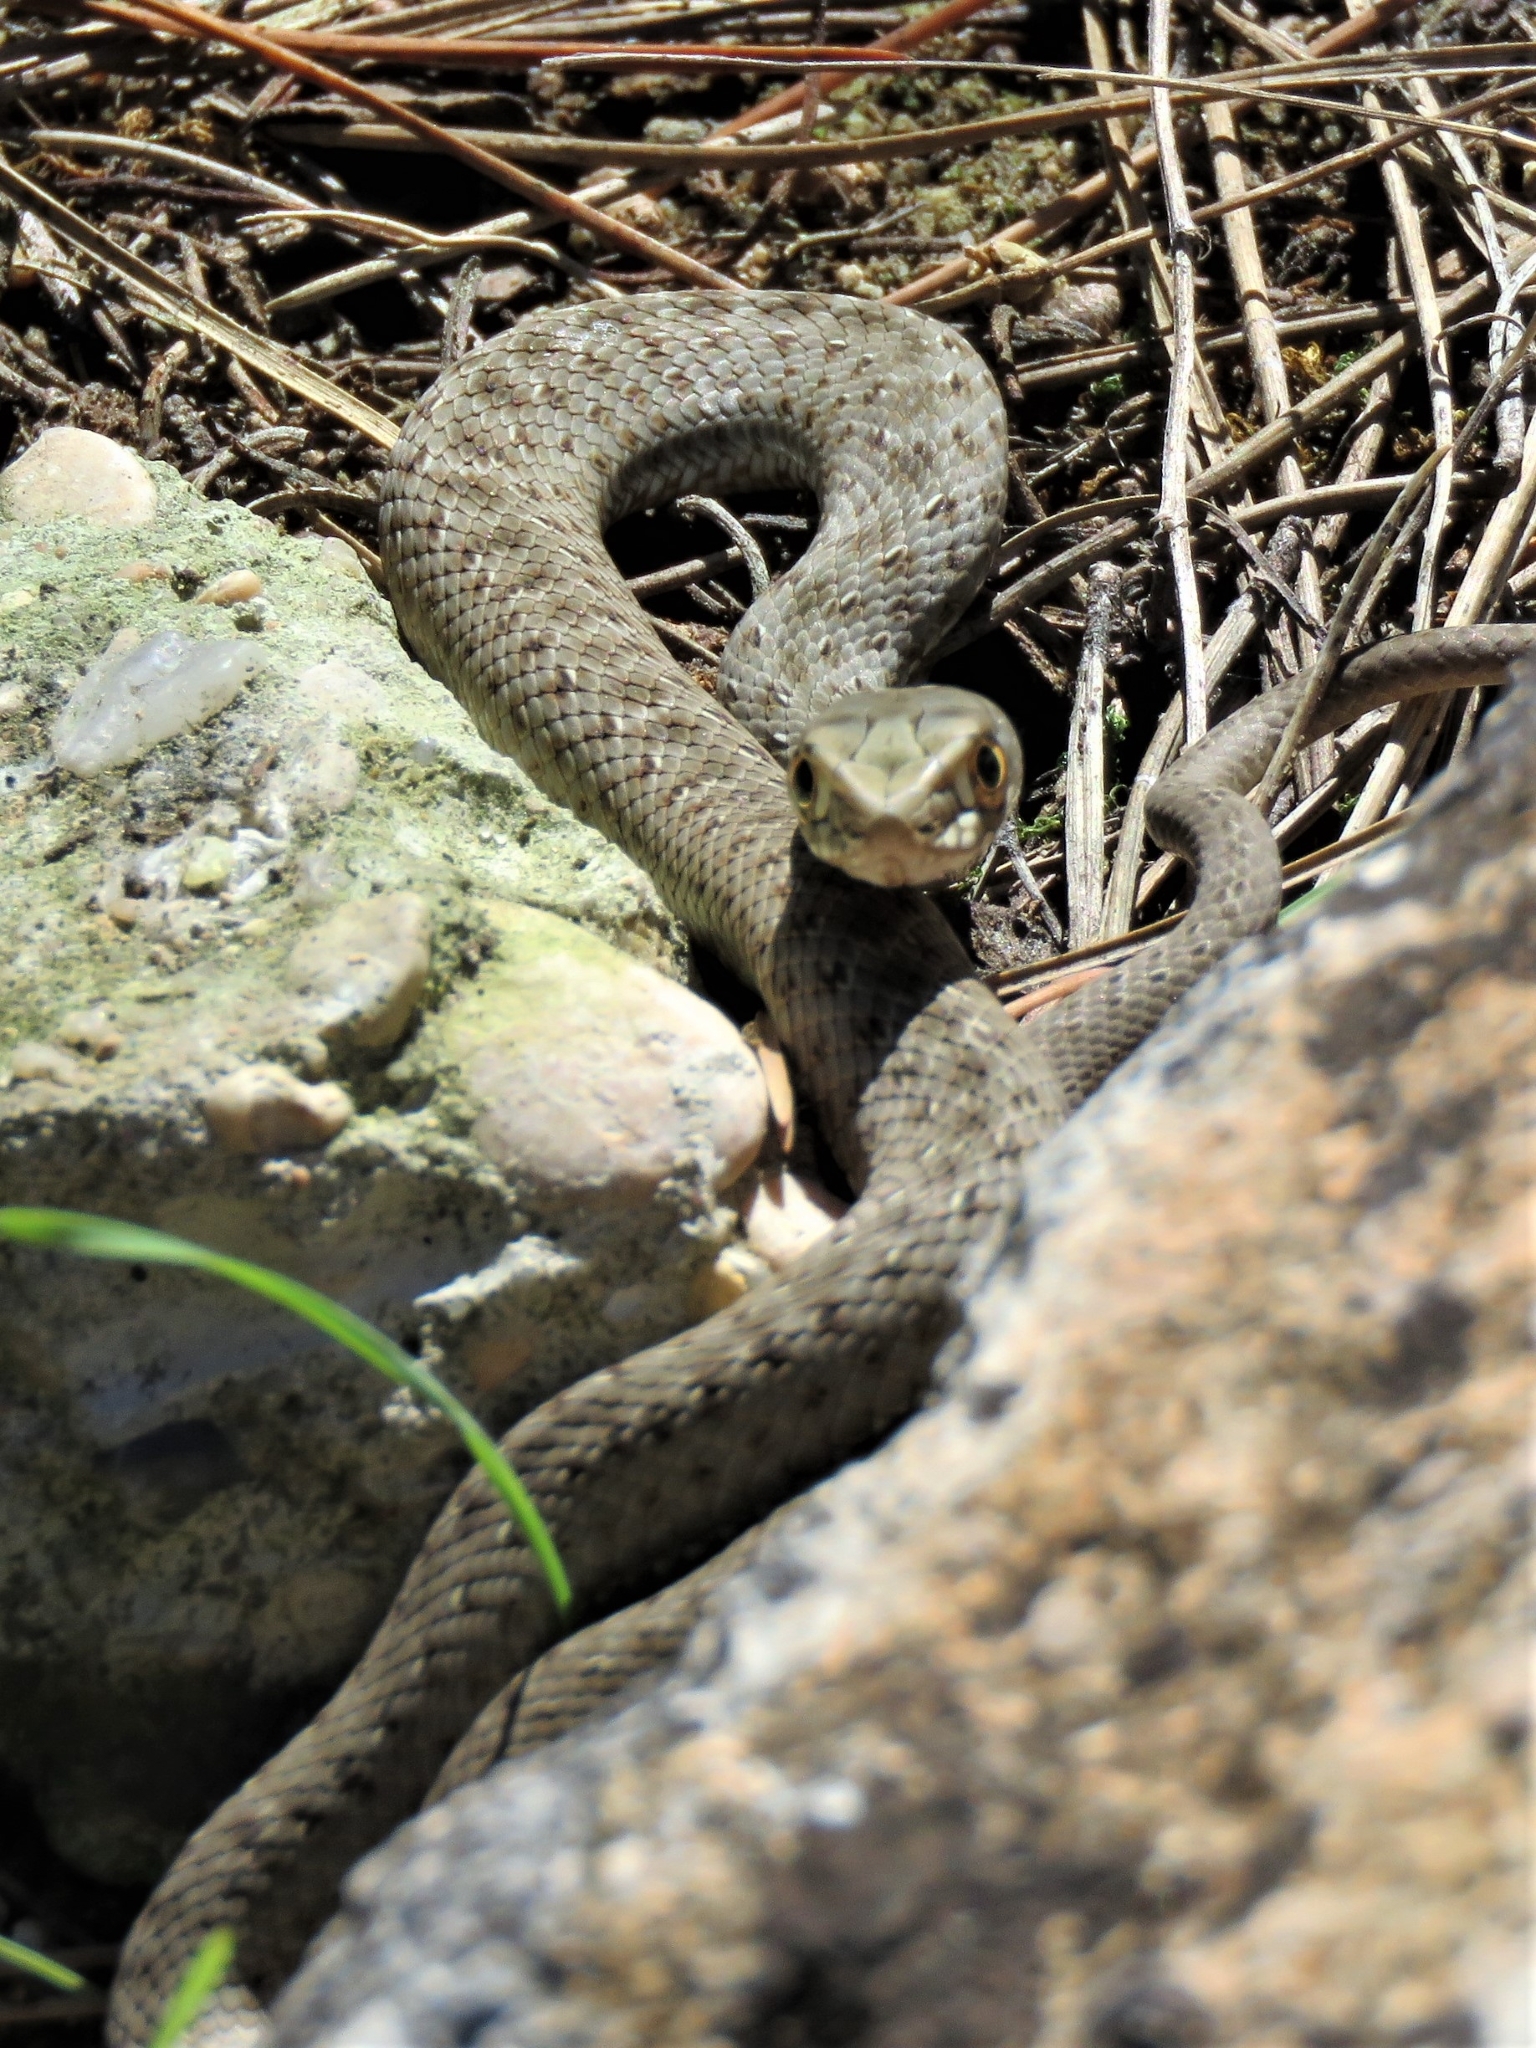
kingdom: Animalia
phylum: Chordata
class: Squamata
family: Psammophiidae
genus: Malpolon
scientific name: Malpolon monspessulanus
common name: Montpellier snake
